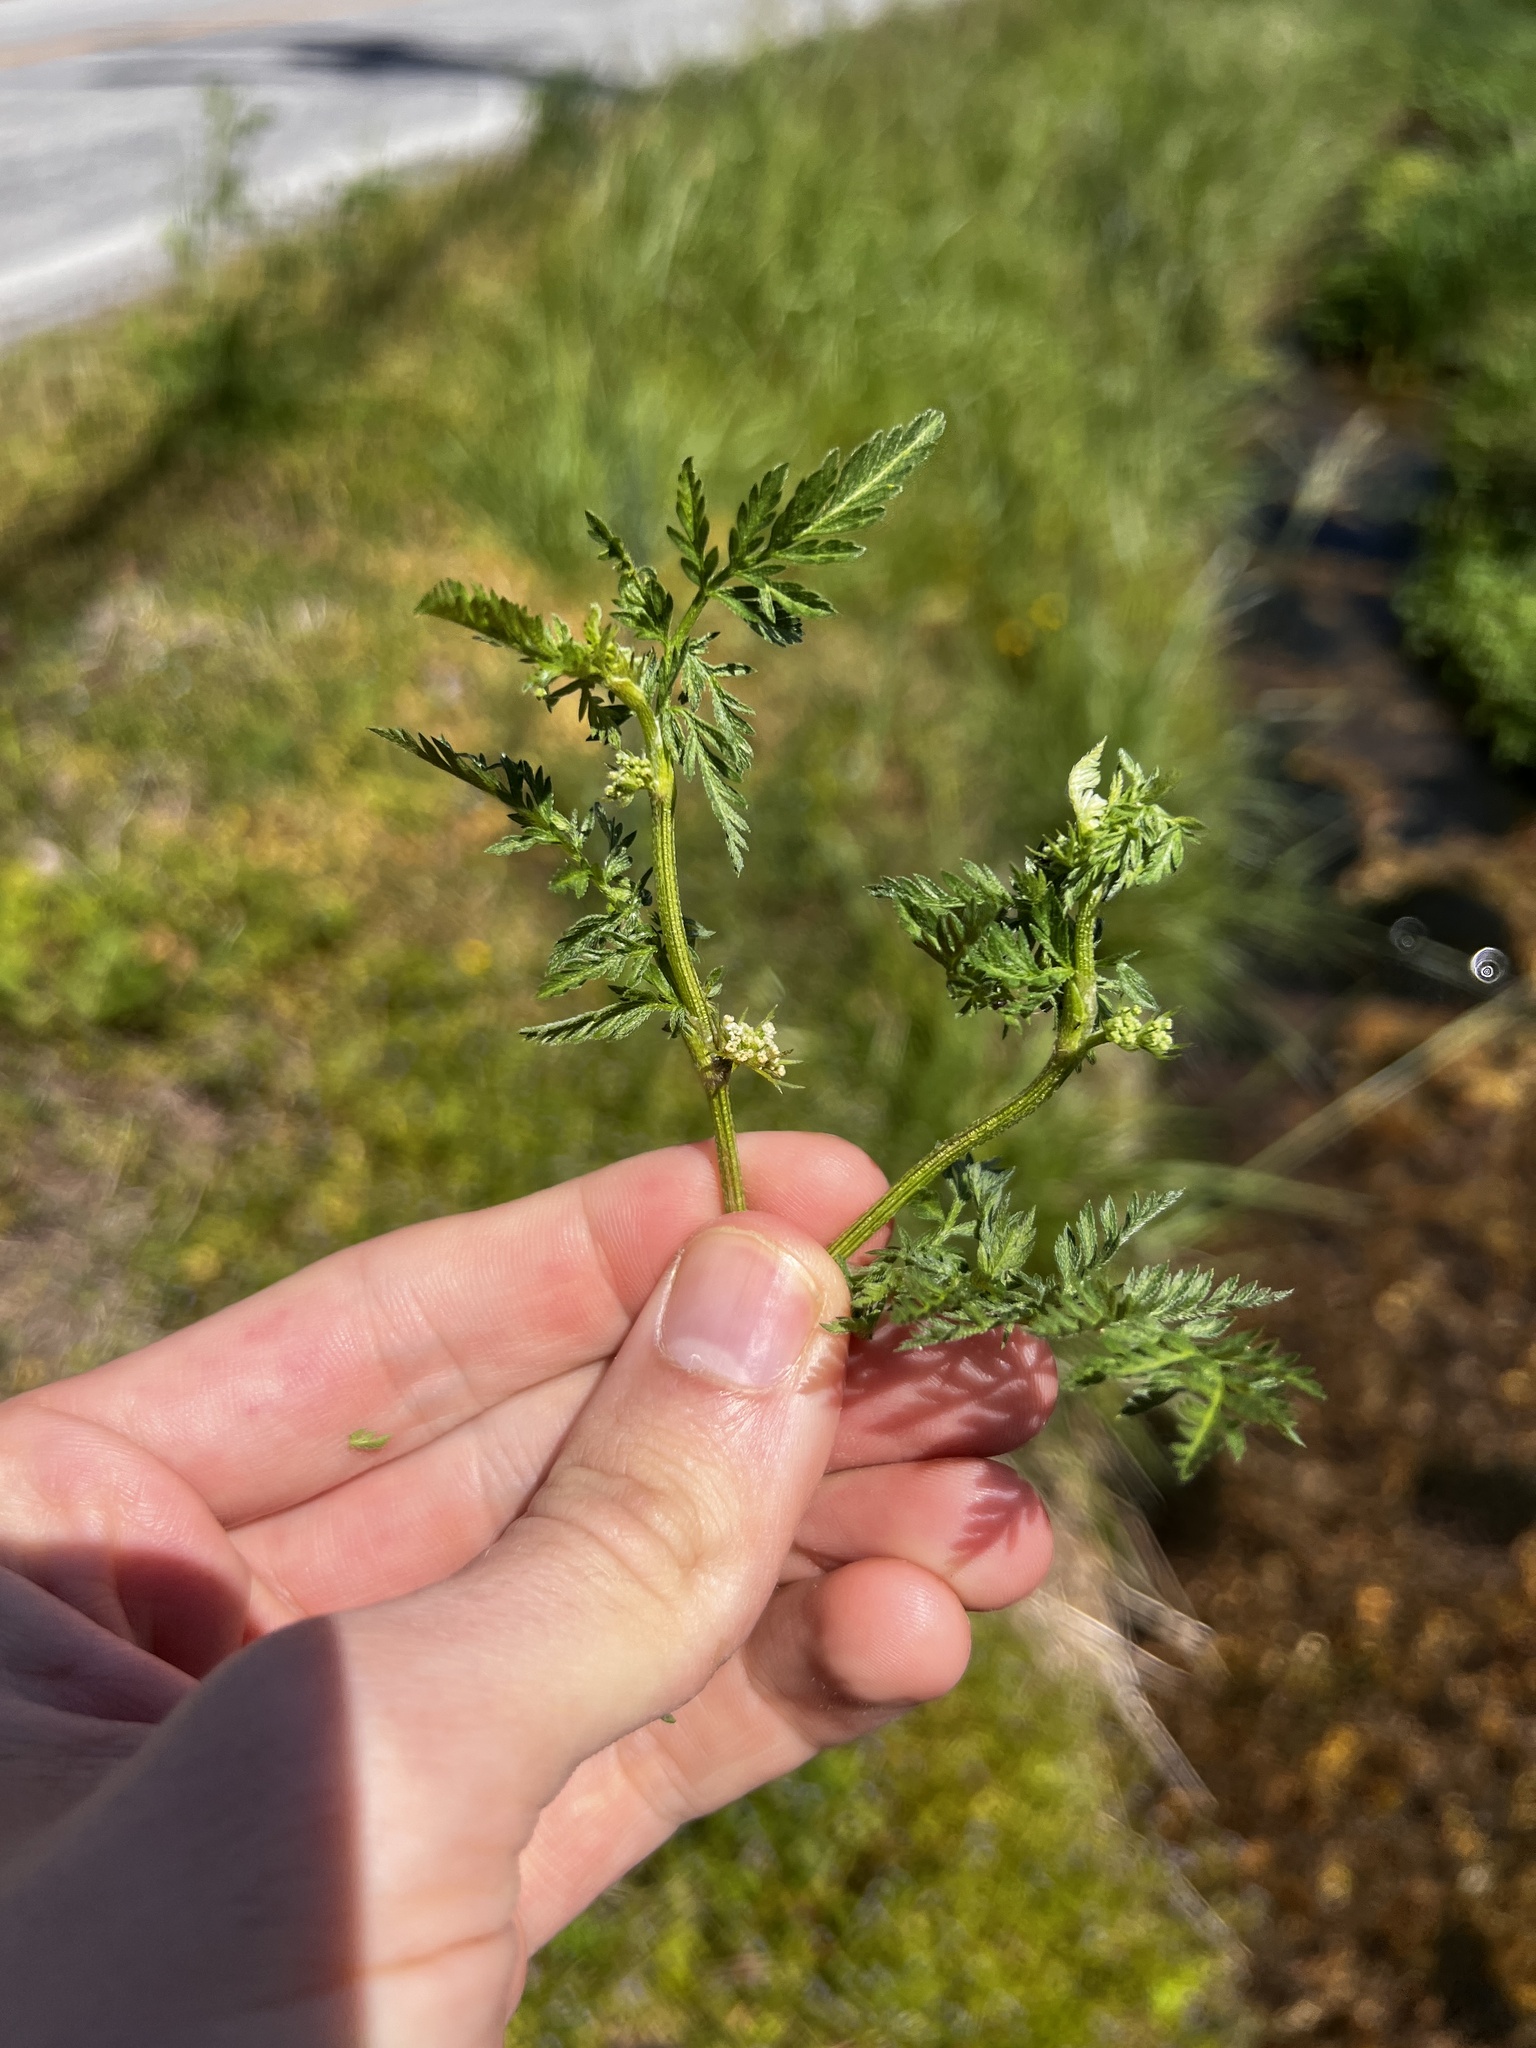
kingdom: Plantae
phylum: Tracheophyta
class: Magnoliopsida
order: Apiales
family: Apiaceae
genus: Torilis
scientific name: Torilis nodosa
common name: Knotted hedge-parsley
